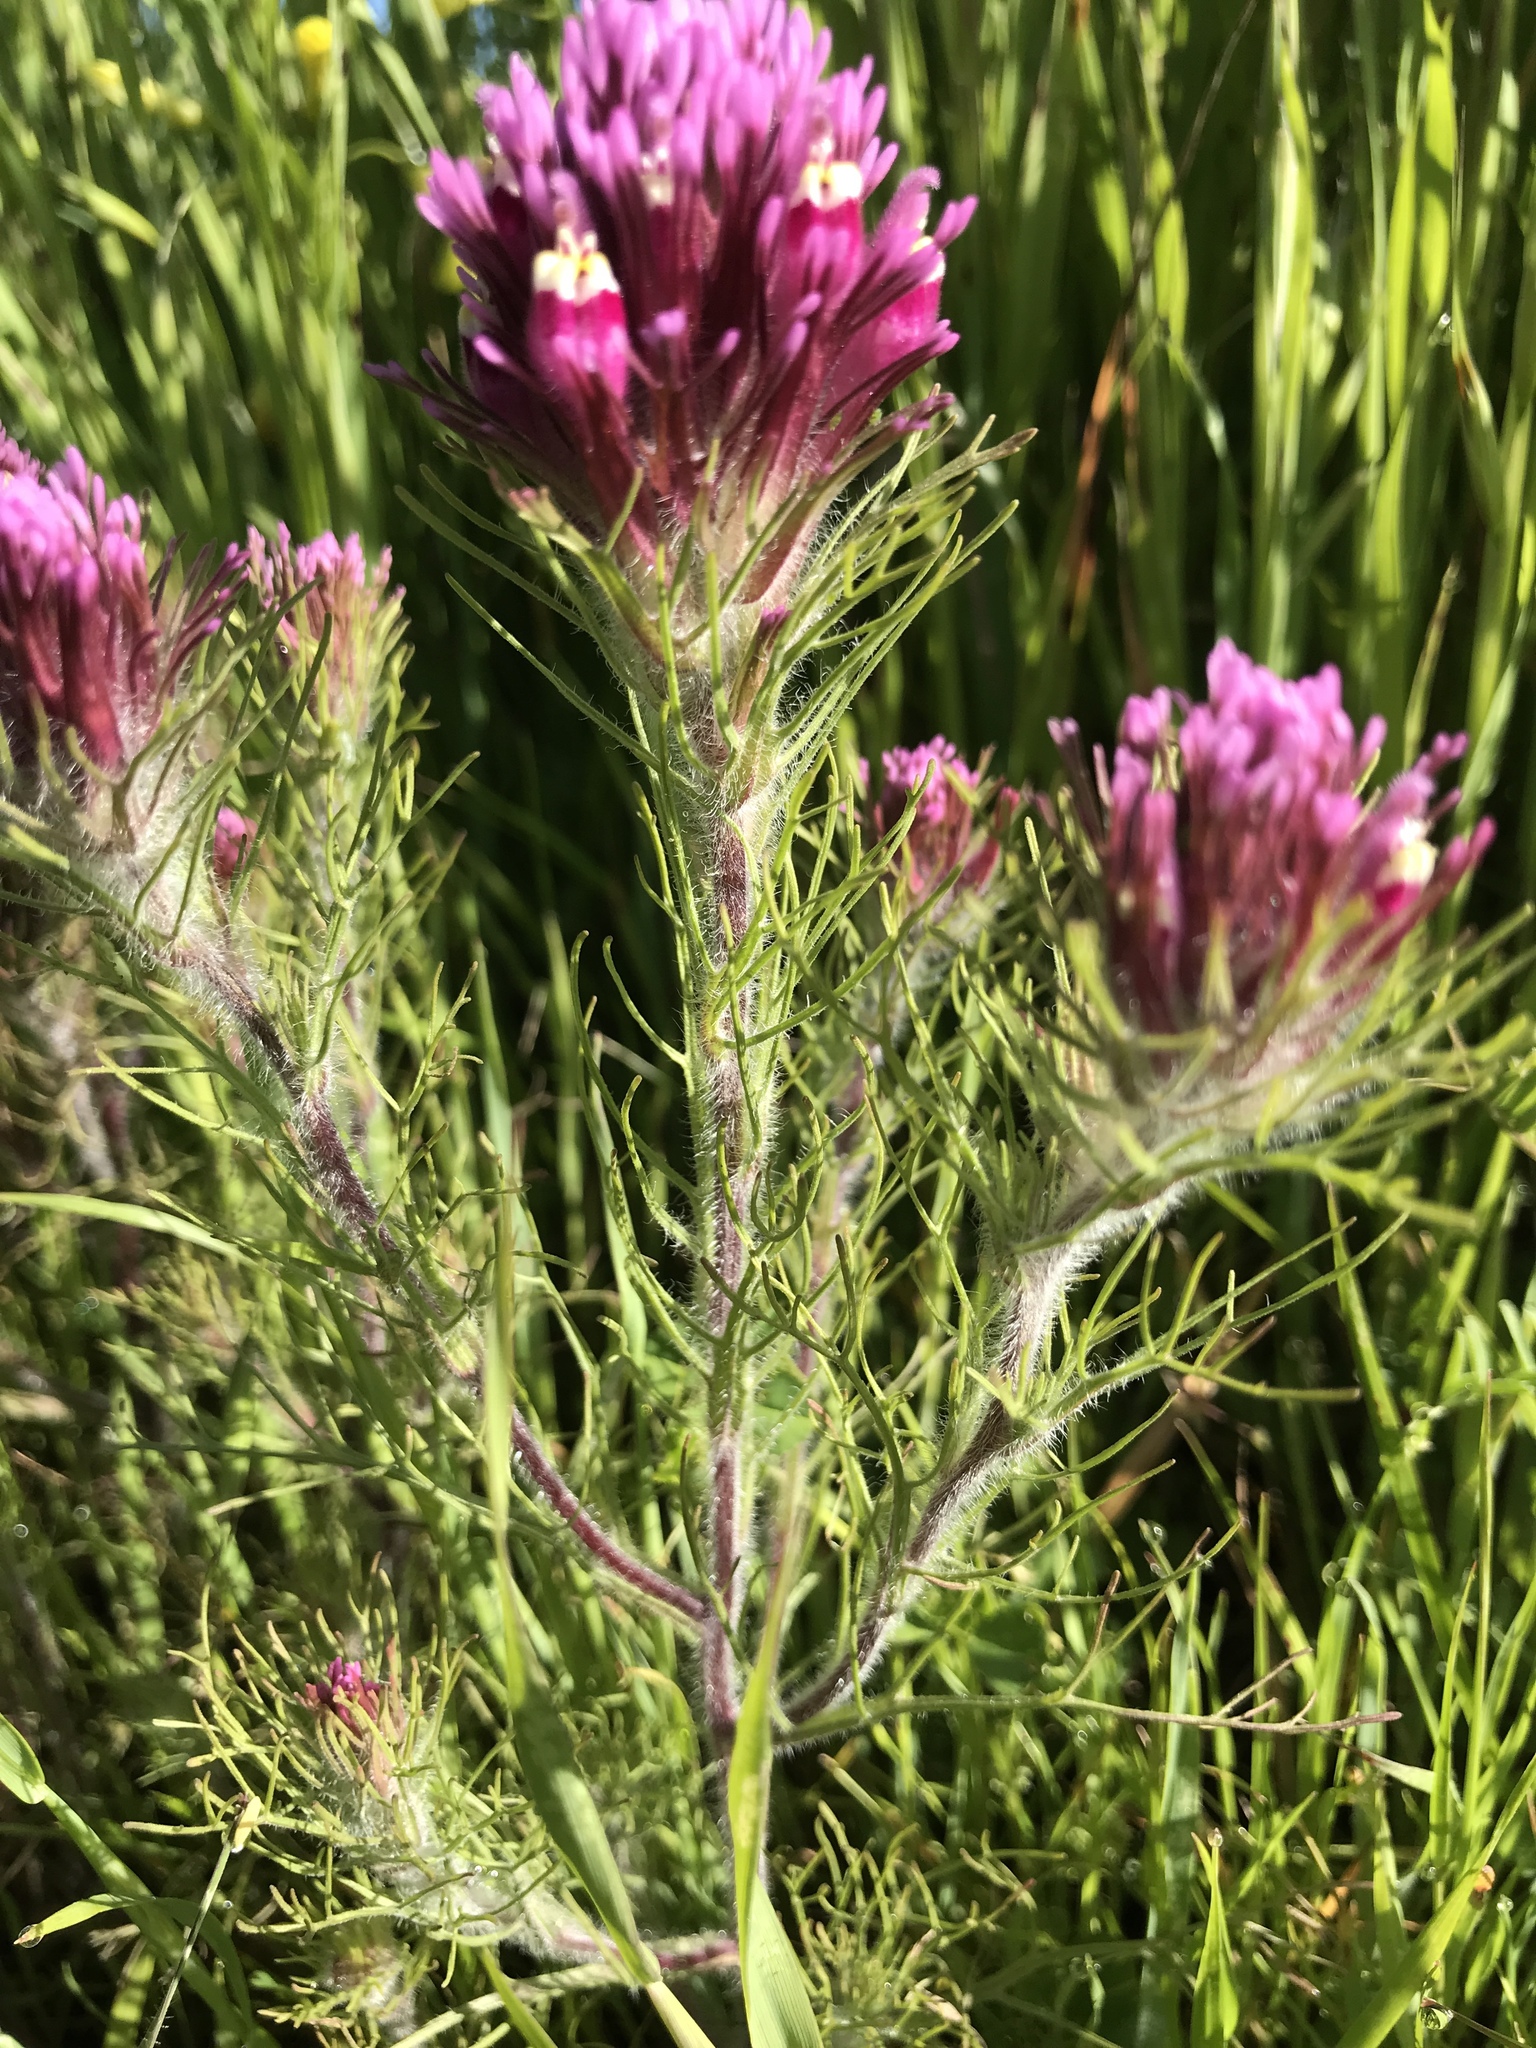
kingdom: Plantae
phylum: Tracheophyta
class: Magnoliopsida
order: Lamiales
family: Orobanchaceae
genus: Castilleja
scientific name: Castilleja exserta
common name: Purple owl-clover
